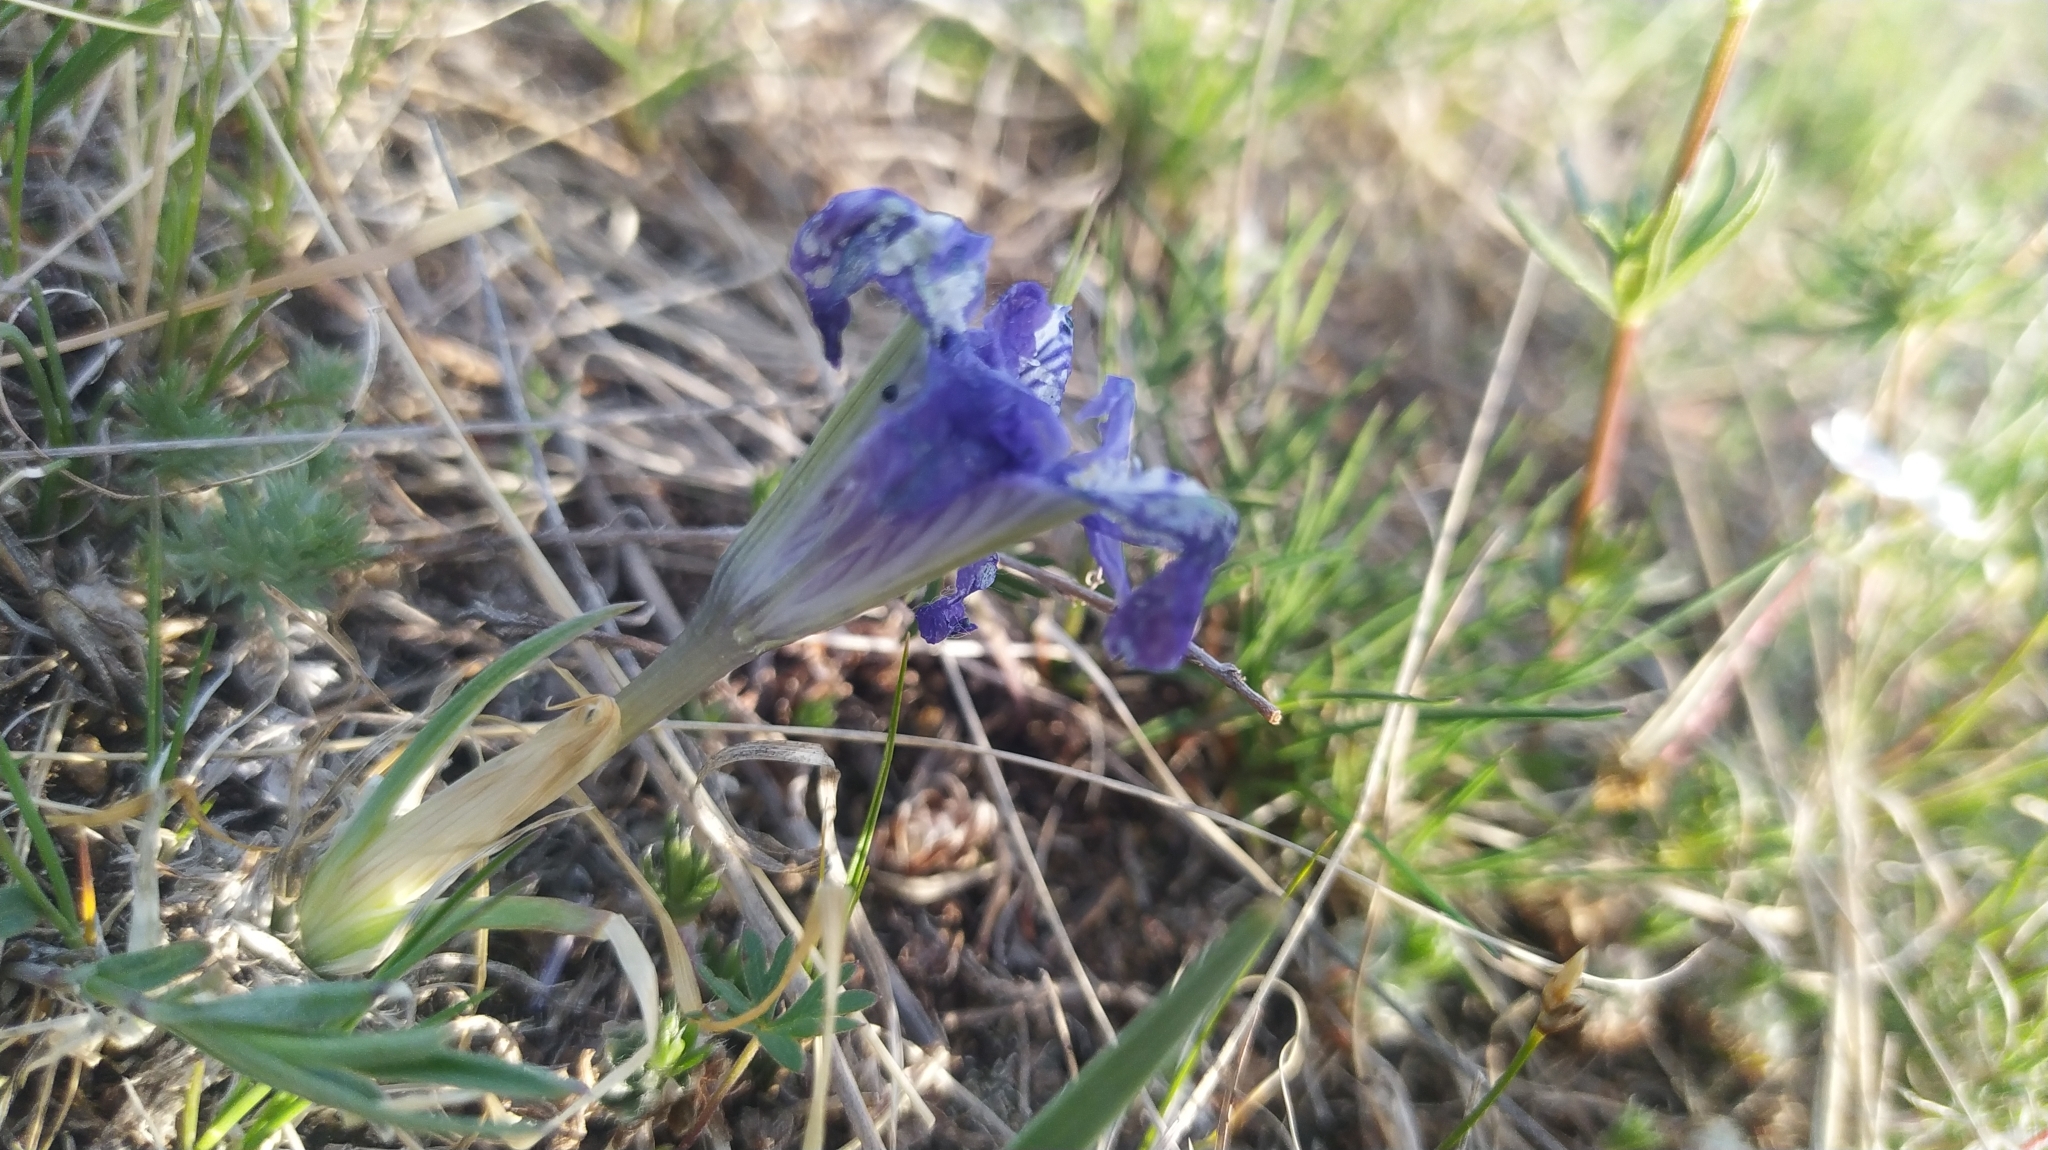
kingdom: Plantae
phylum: Tracheophyta
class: Liliopsida
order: Asparagales
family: Iridaceae
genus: Iris
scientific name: Iris tigridia
